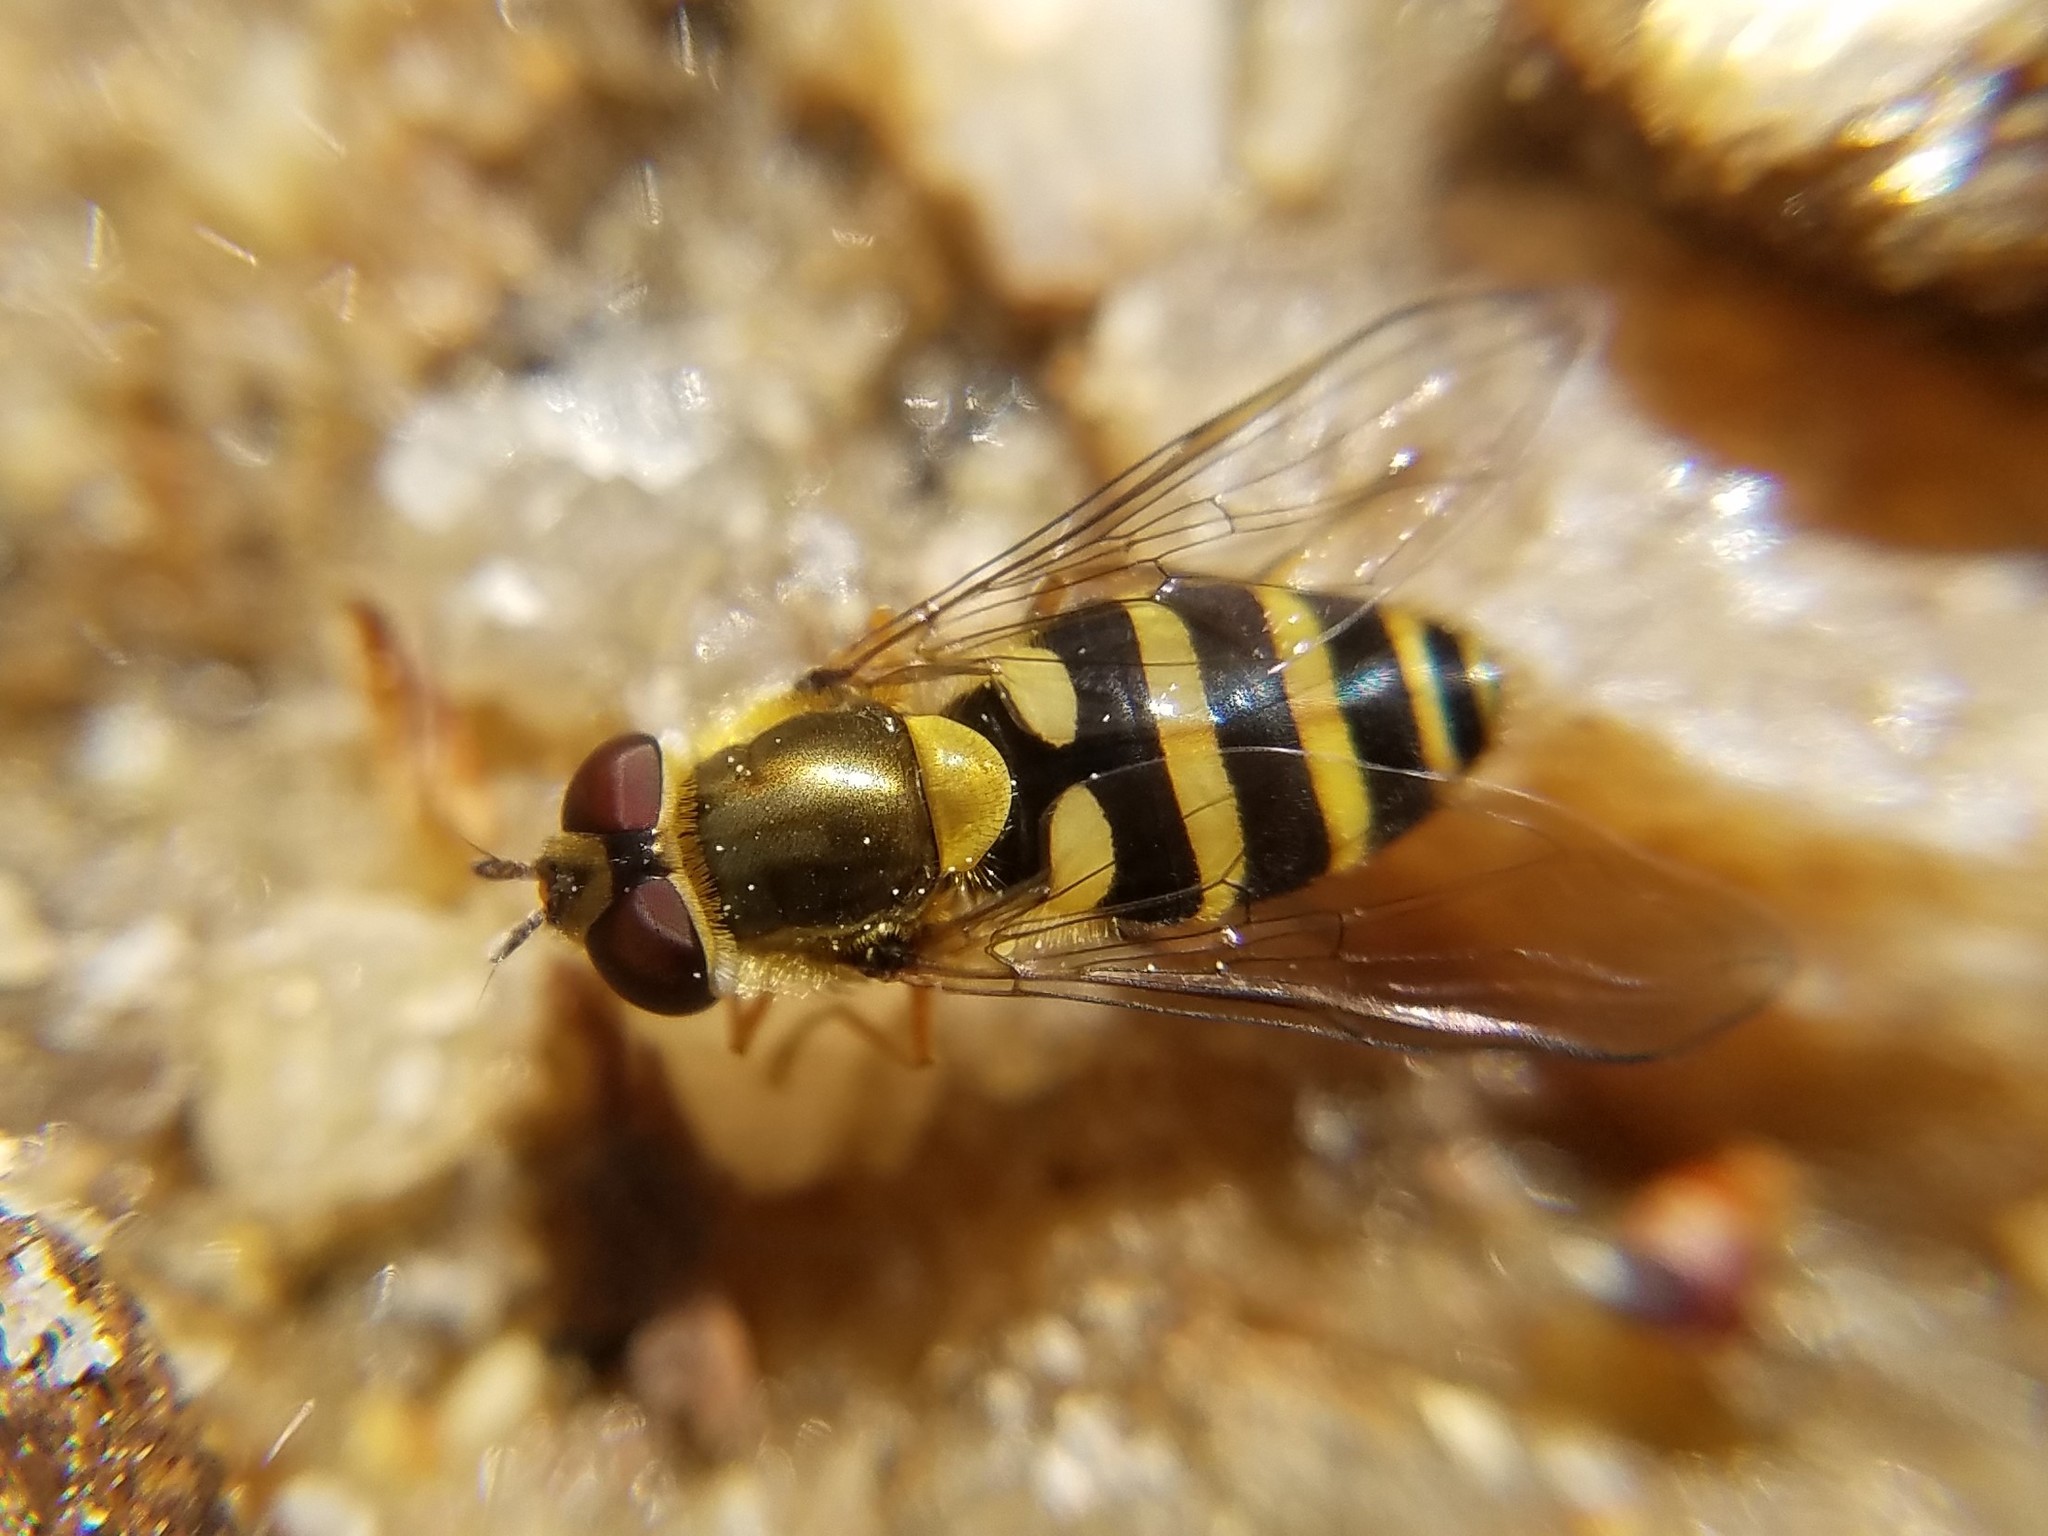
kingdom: Animalia
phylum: Arthropoda
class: Insecta
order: Diptera
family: Syrphidae
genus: Syrphus
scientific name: Syrphus
